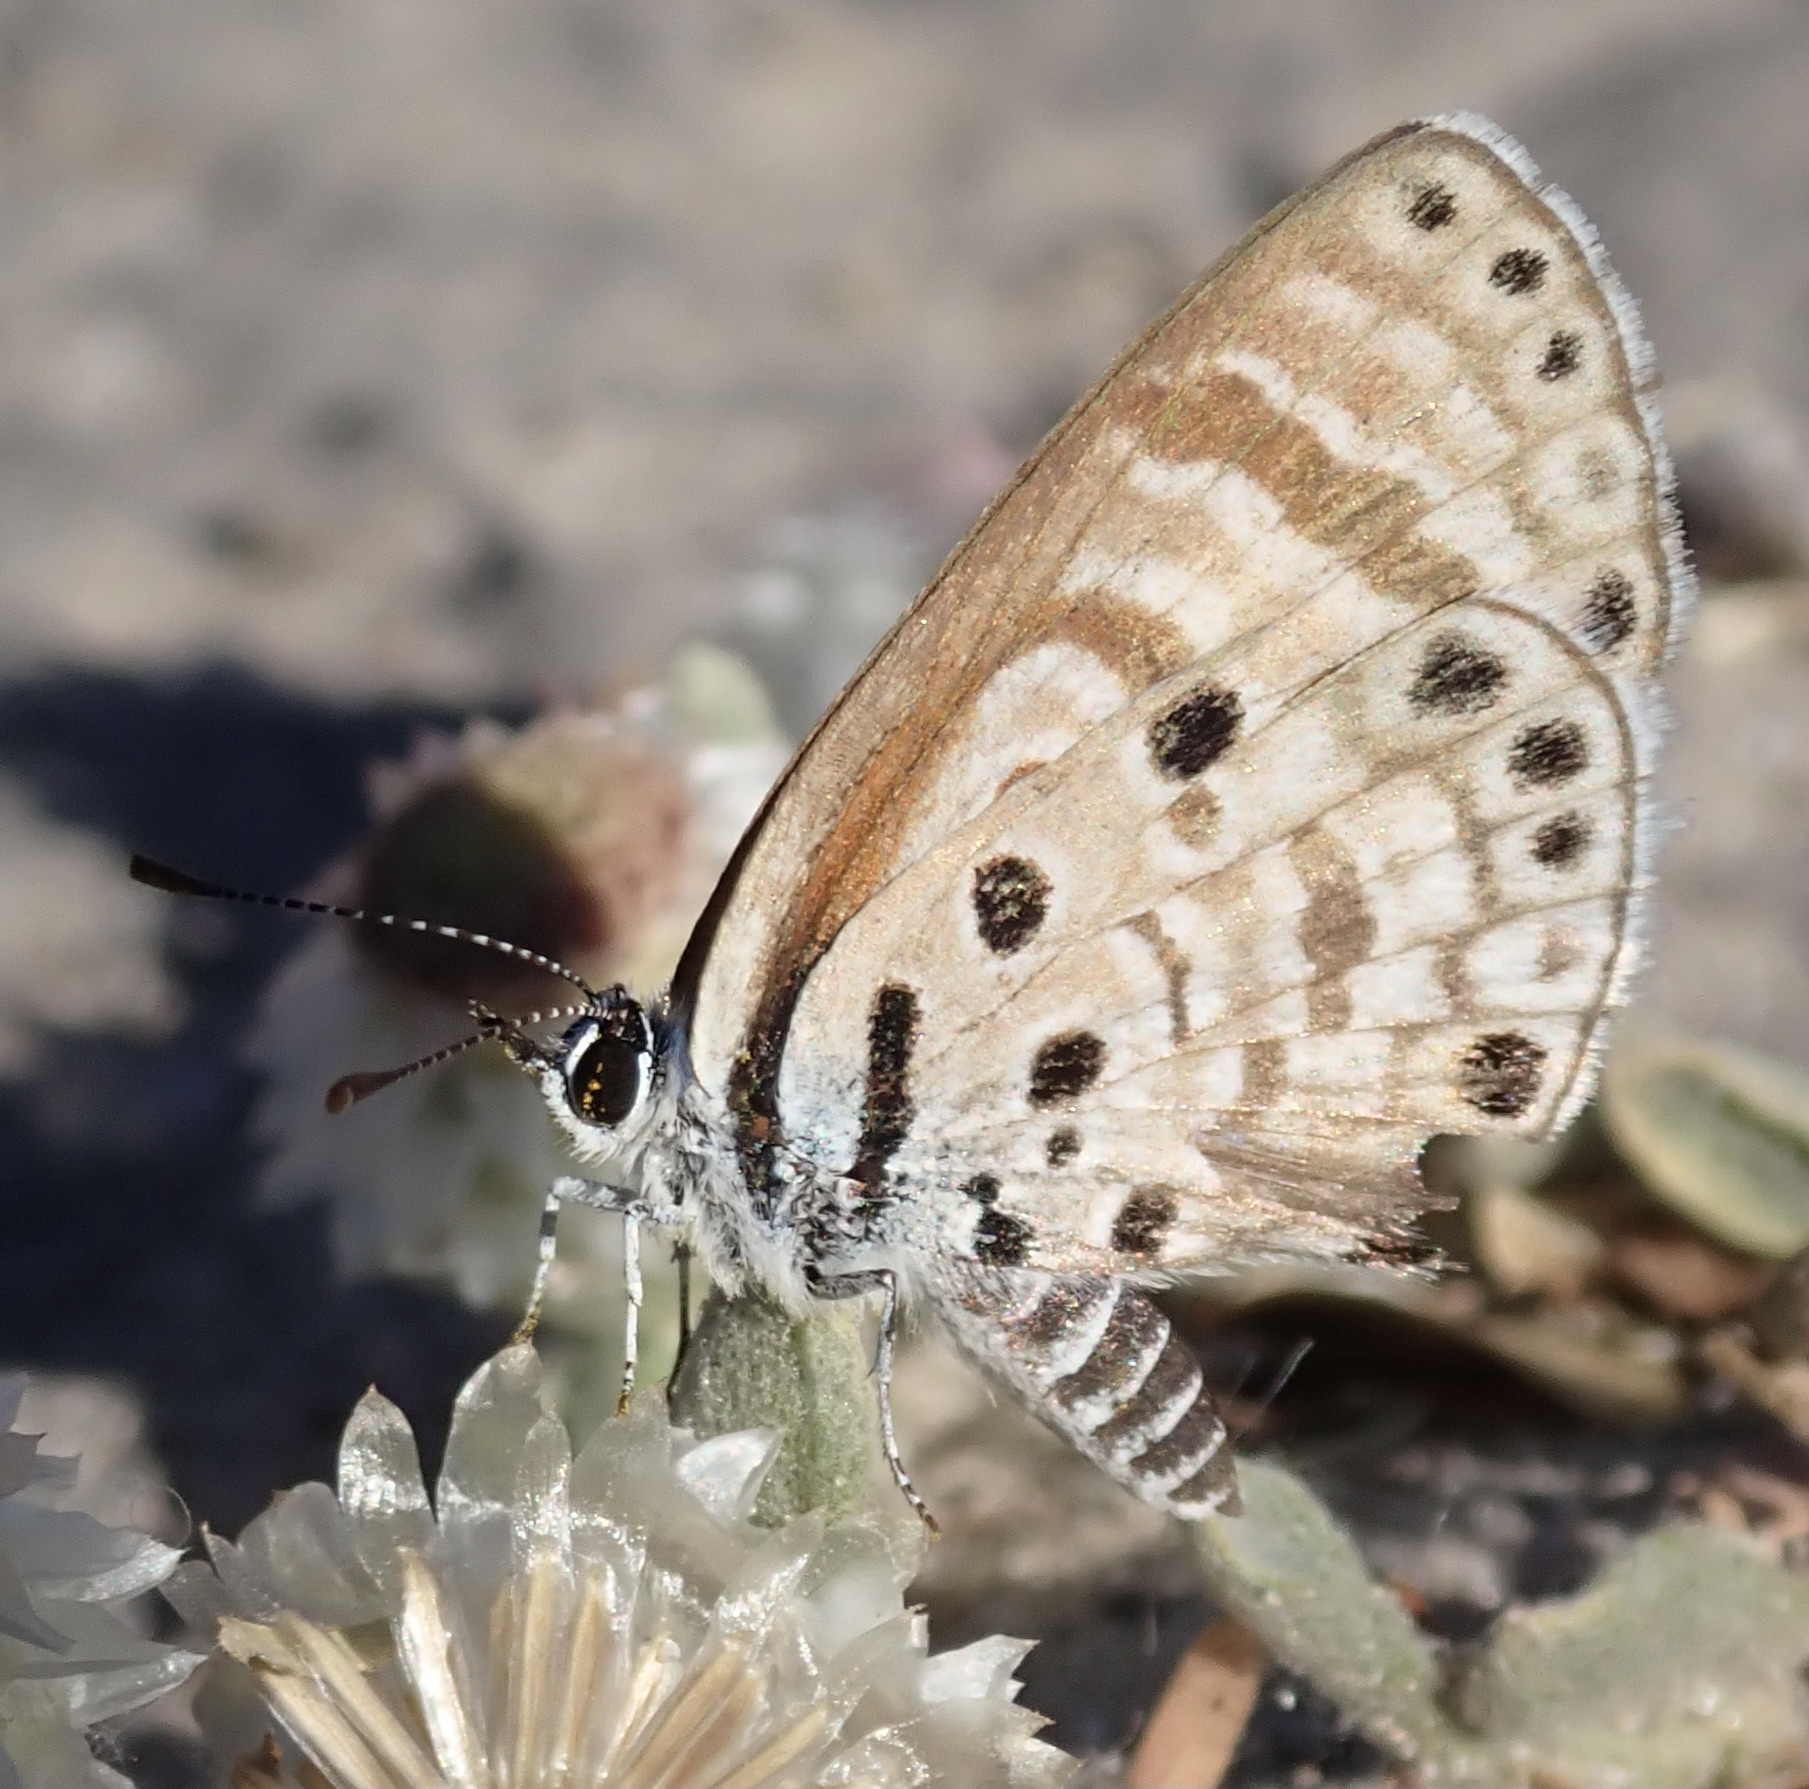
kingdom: Animalia
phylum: Arthropoda
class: Insecta
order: Lepidoptera
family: Lycaenidae
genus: Azanus
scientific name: Azanus jesous
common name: African babul blue
